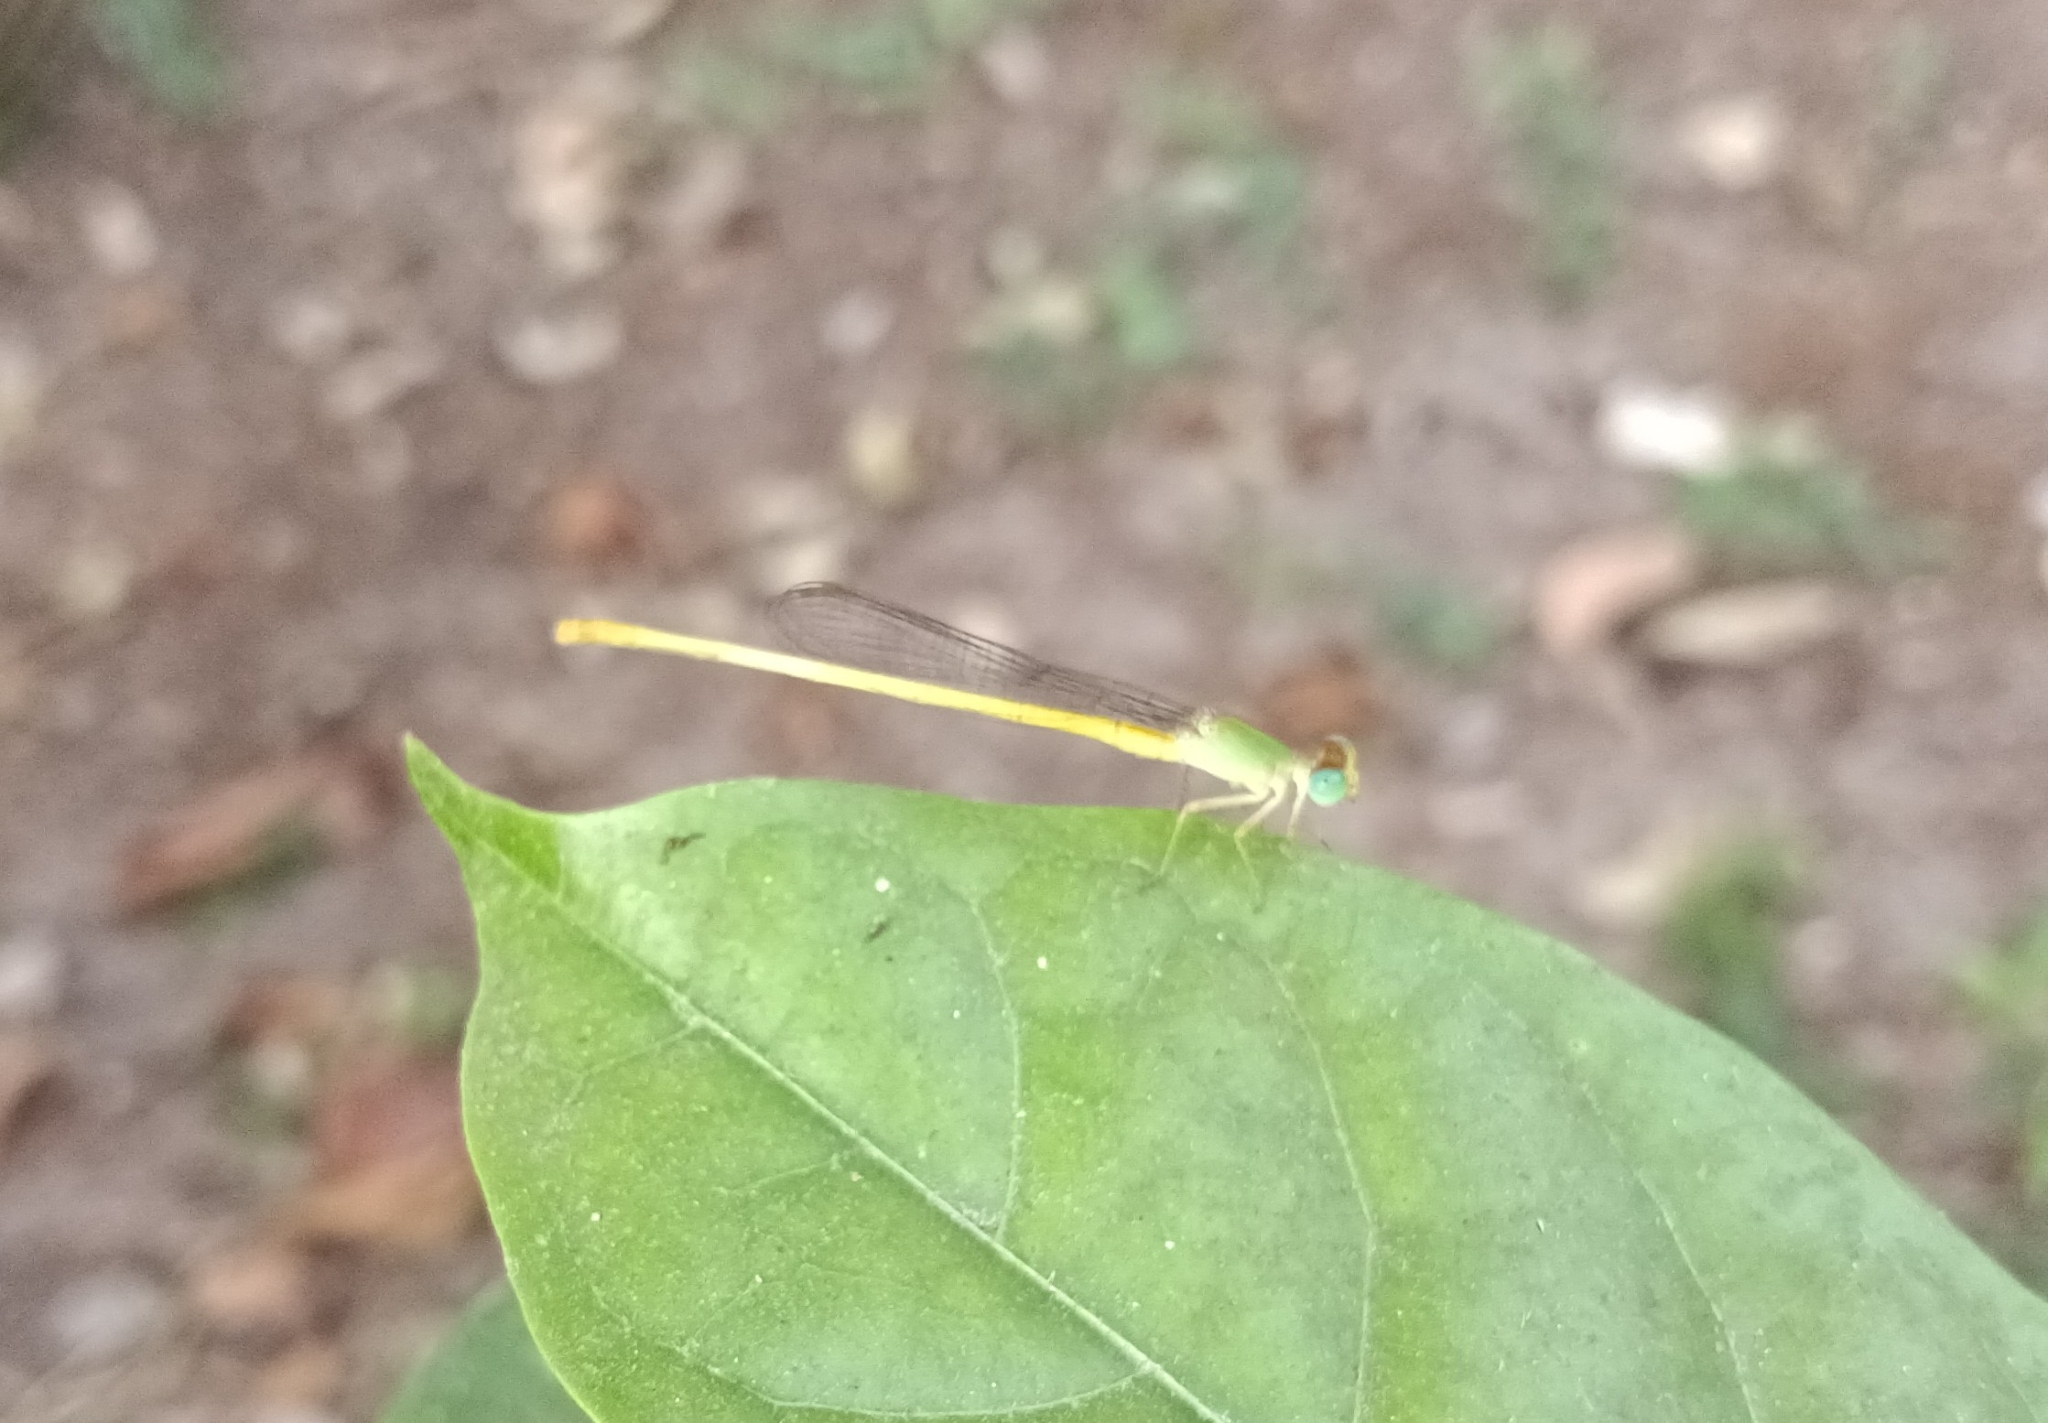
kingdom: Animalia
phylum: Arthropoda
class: Insecta
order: Odonata
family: Coenagrionidae
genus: Ceriagrion
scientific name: Ceriagrion coromandelianum
